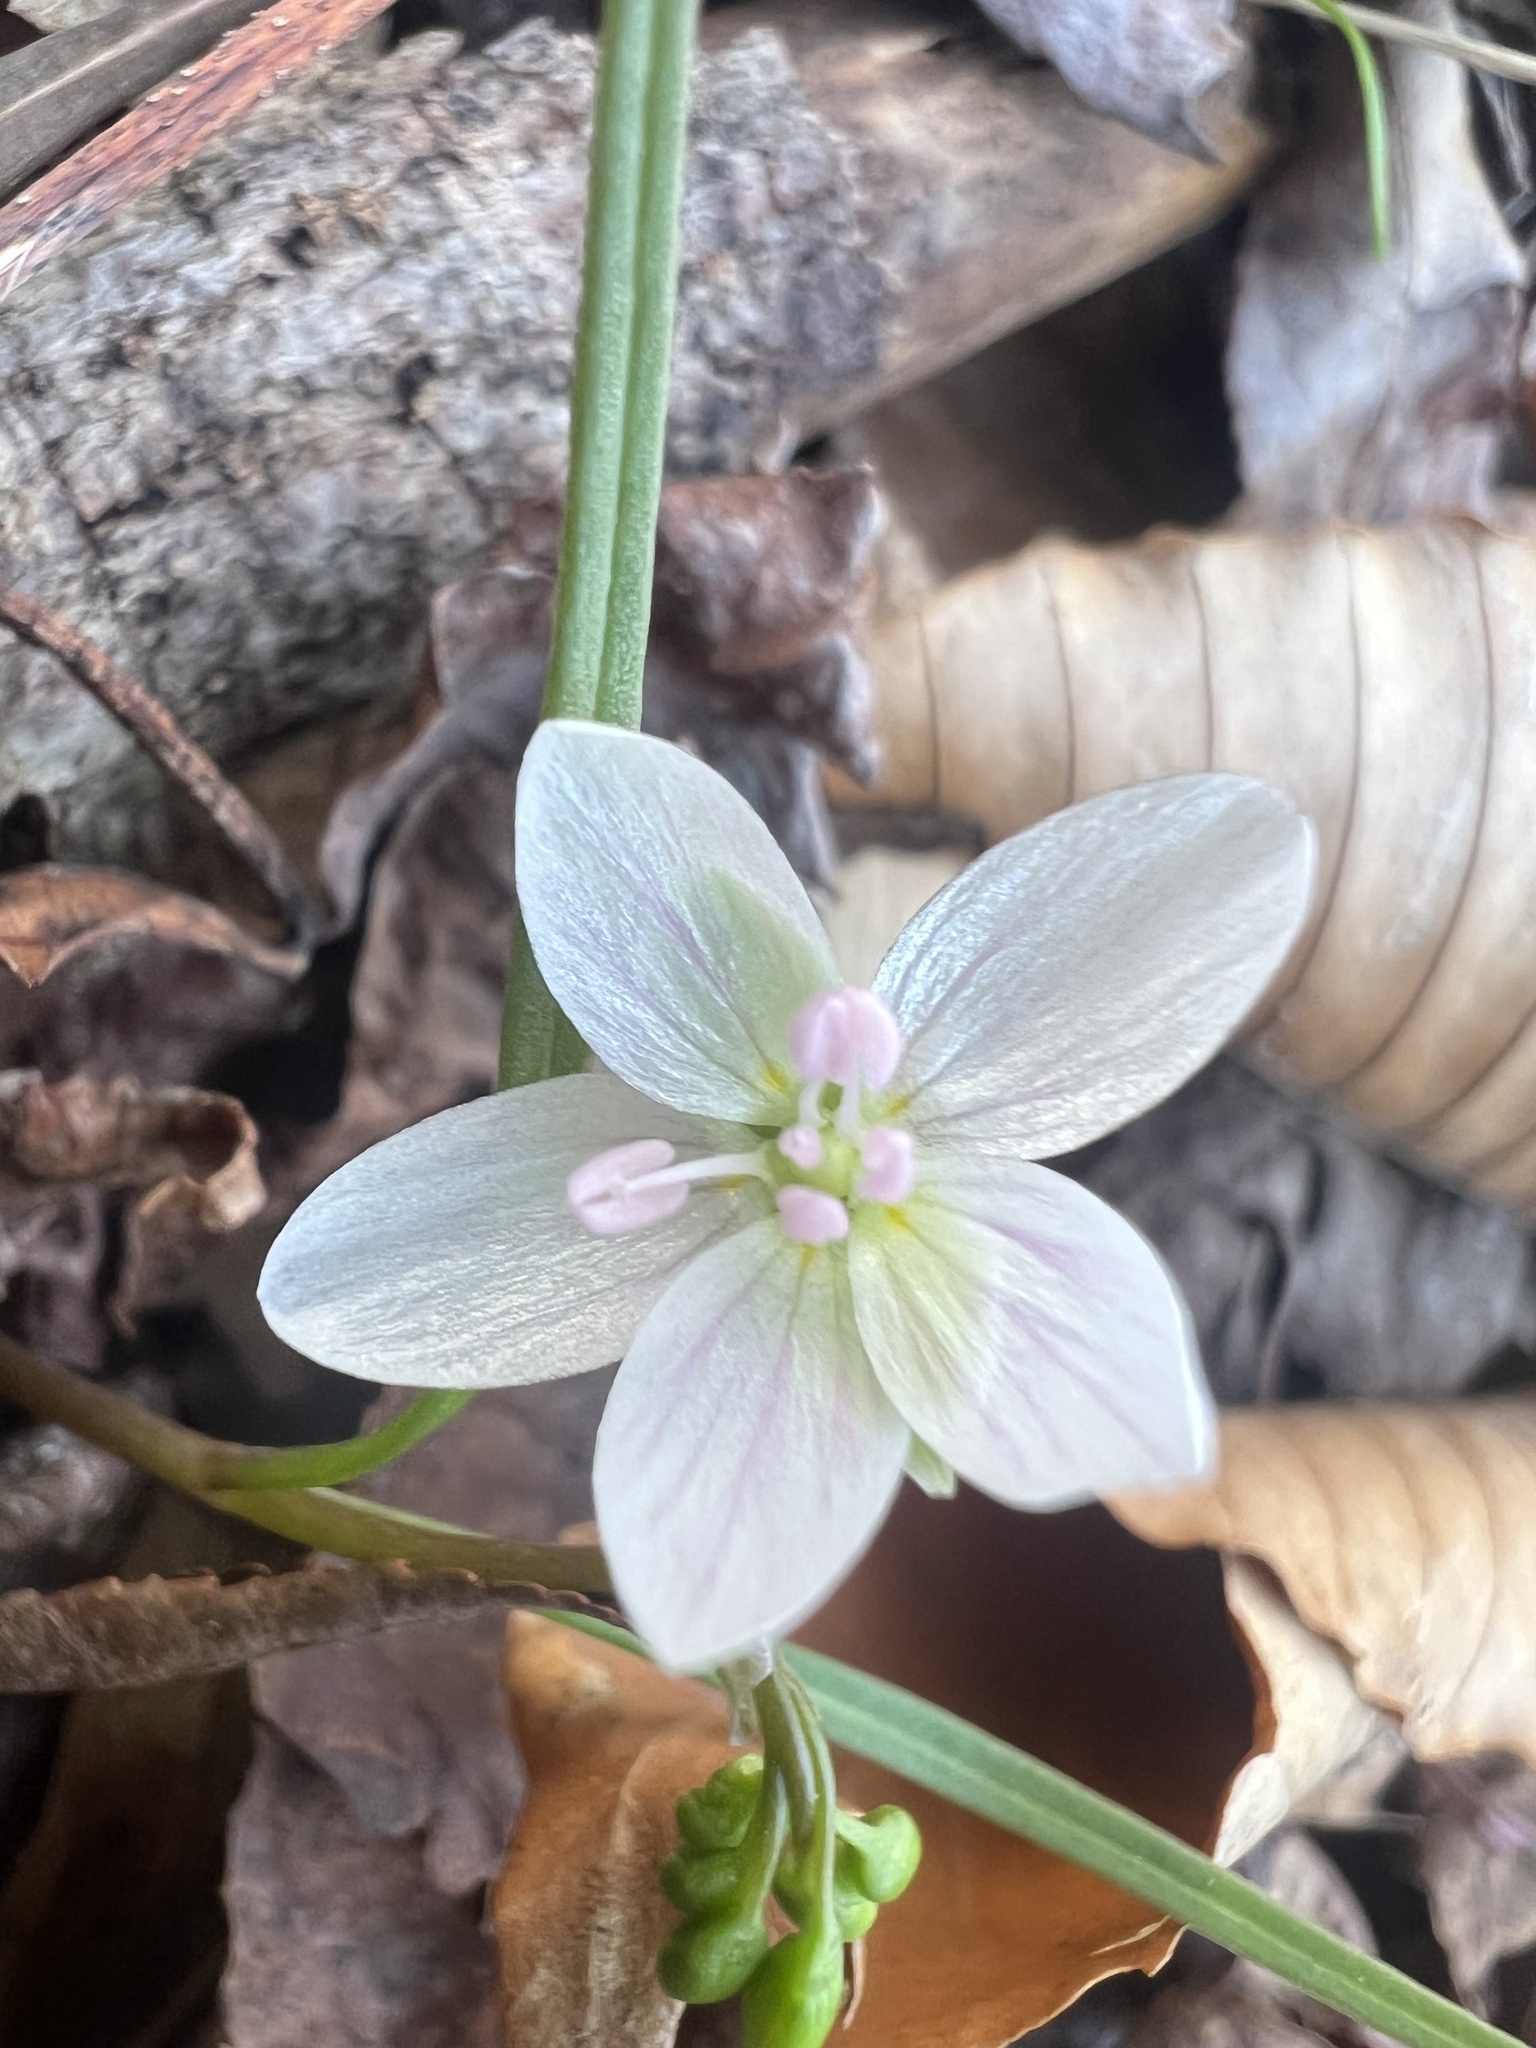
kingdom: Plantae
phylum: Tracheophyta
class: Magnoliopsida
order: Caryophyllales
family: Montiaceae
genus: Claytonia
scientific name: Claytonia virginica
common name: Virginia springbeauty
